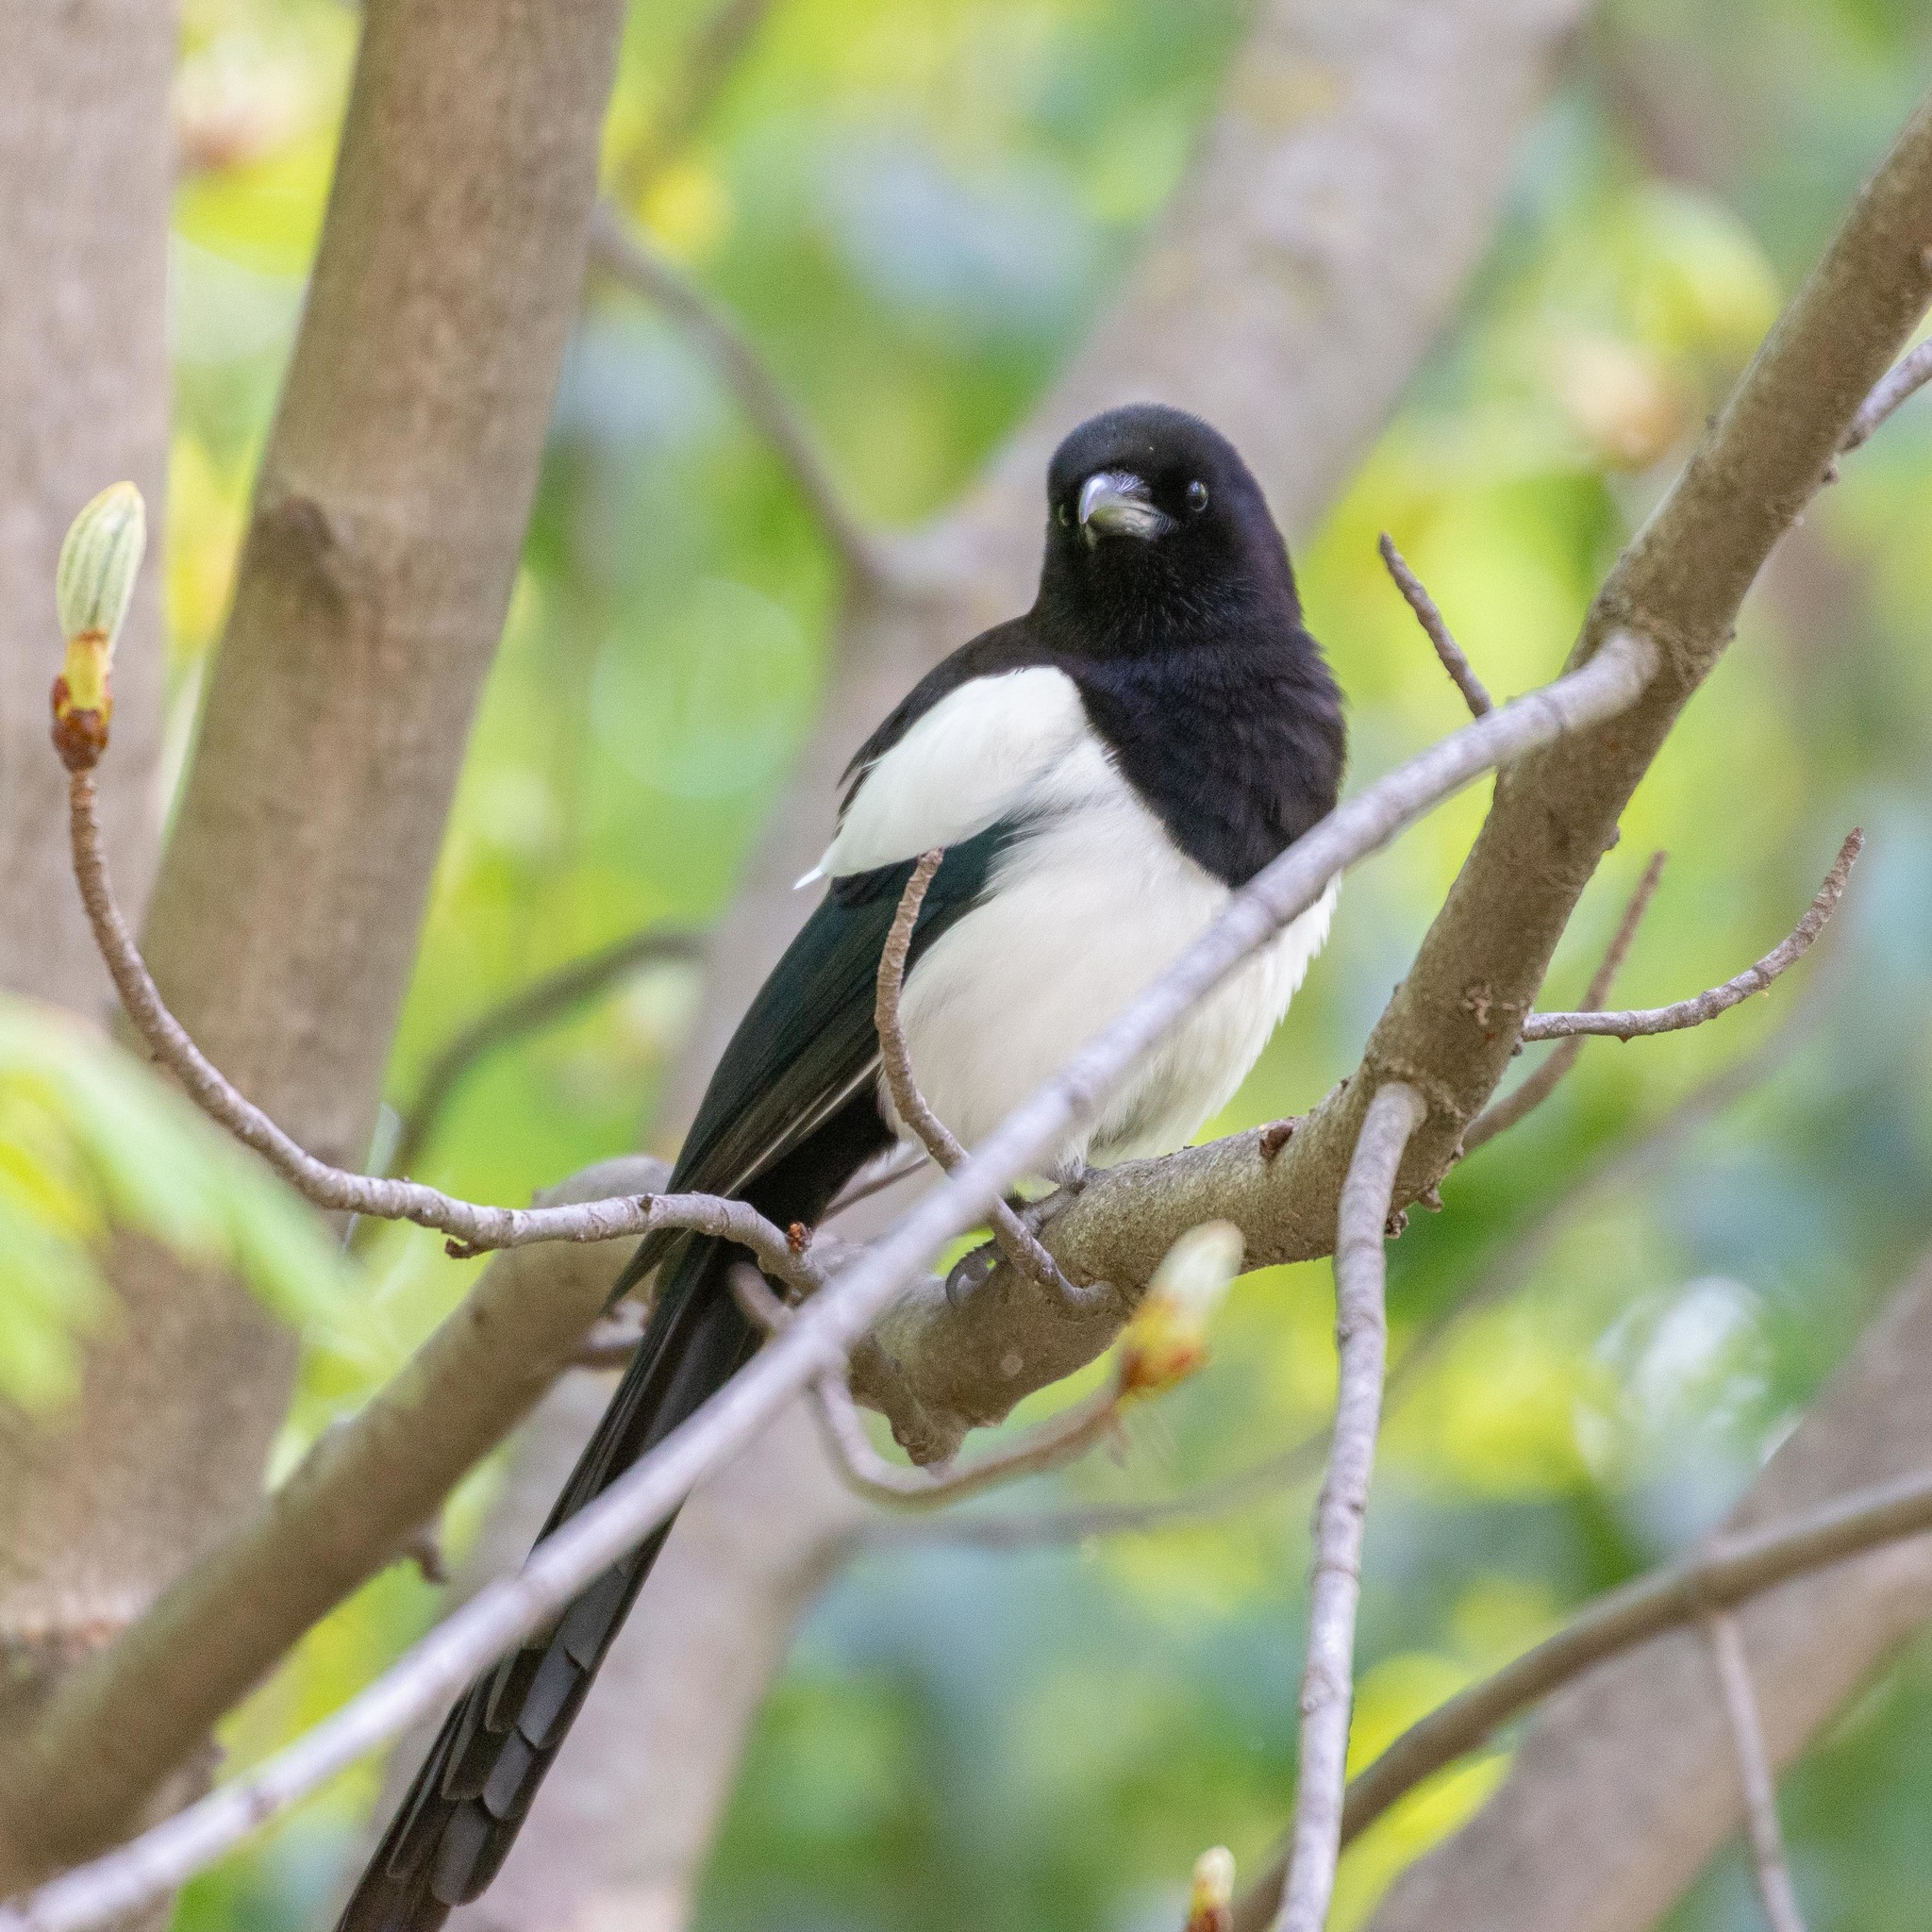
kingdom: Animalia
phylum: Chordata
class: Aves
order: Passeriformes
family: Corvidae
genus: Pica
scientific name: Pica pica
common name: Eurasian magpie
